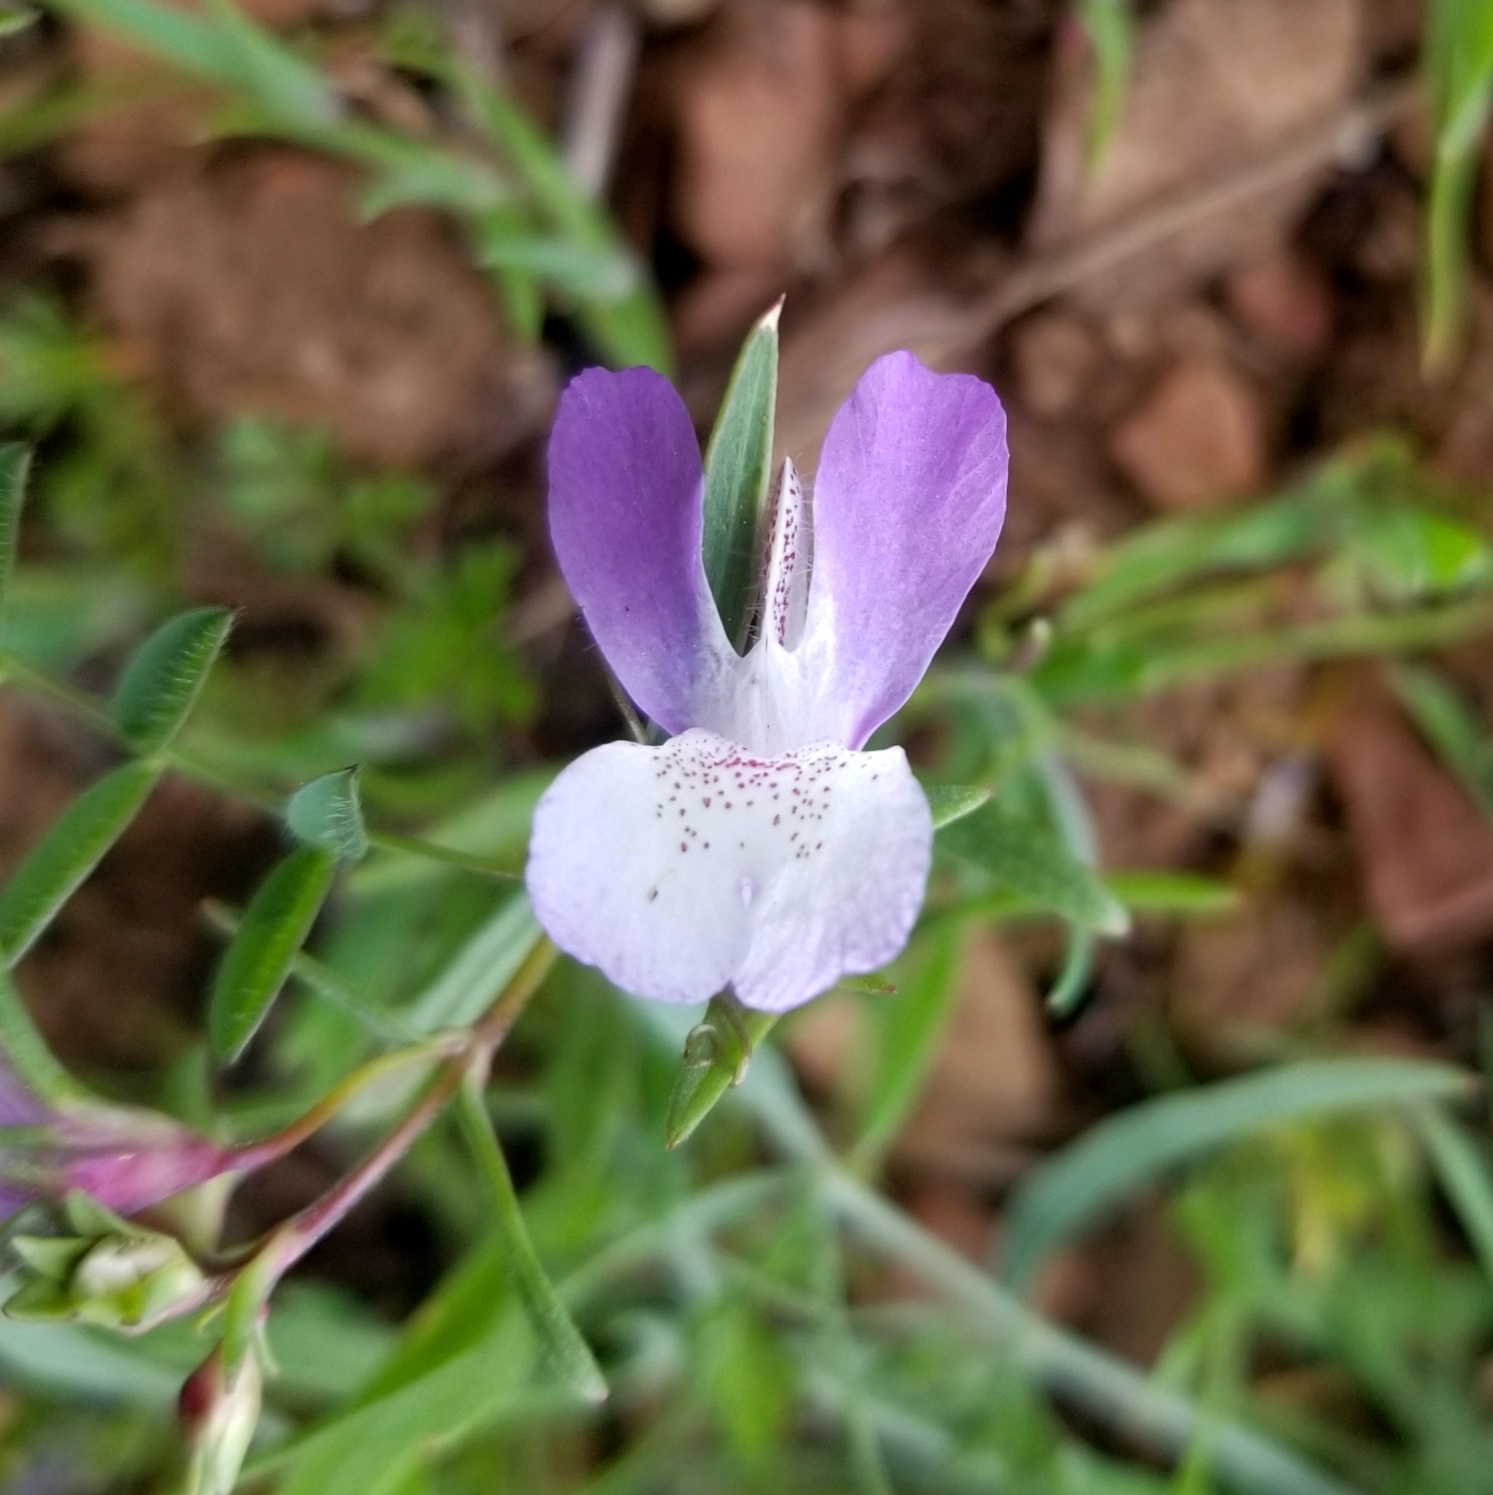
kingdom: Plantae
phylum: Tracheophyta
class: Magnoliopsida
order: Lamiales
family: Plantaginaceae
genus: Collinsia
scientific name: Collinsia sparsiflora
